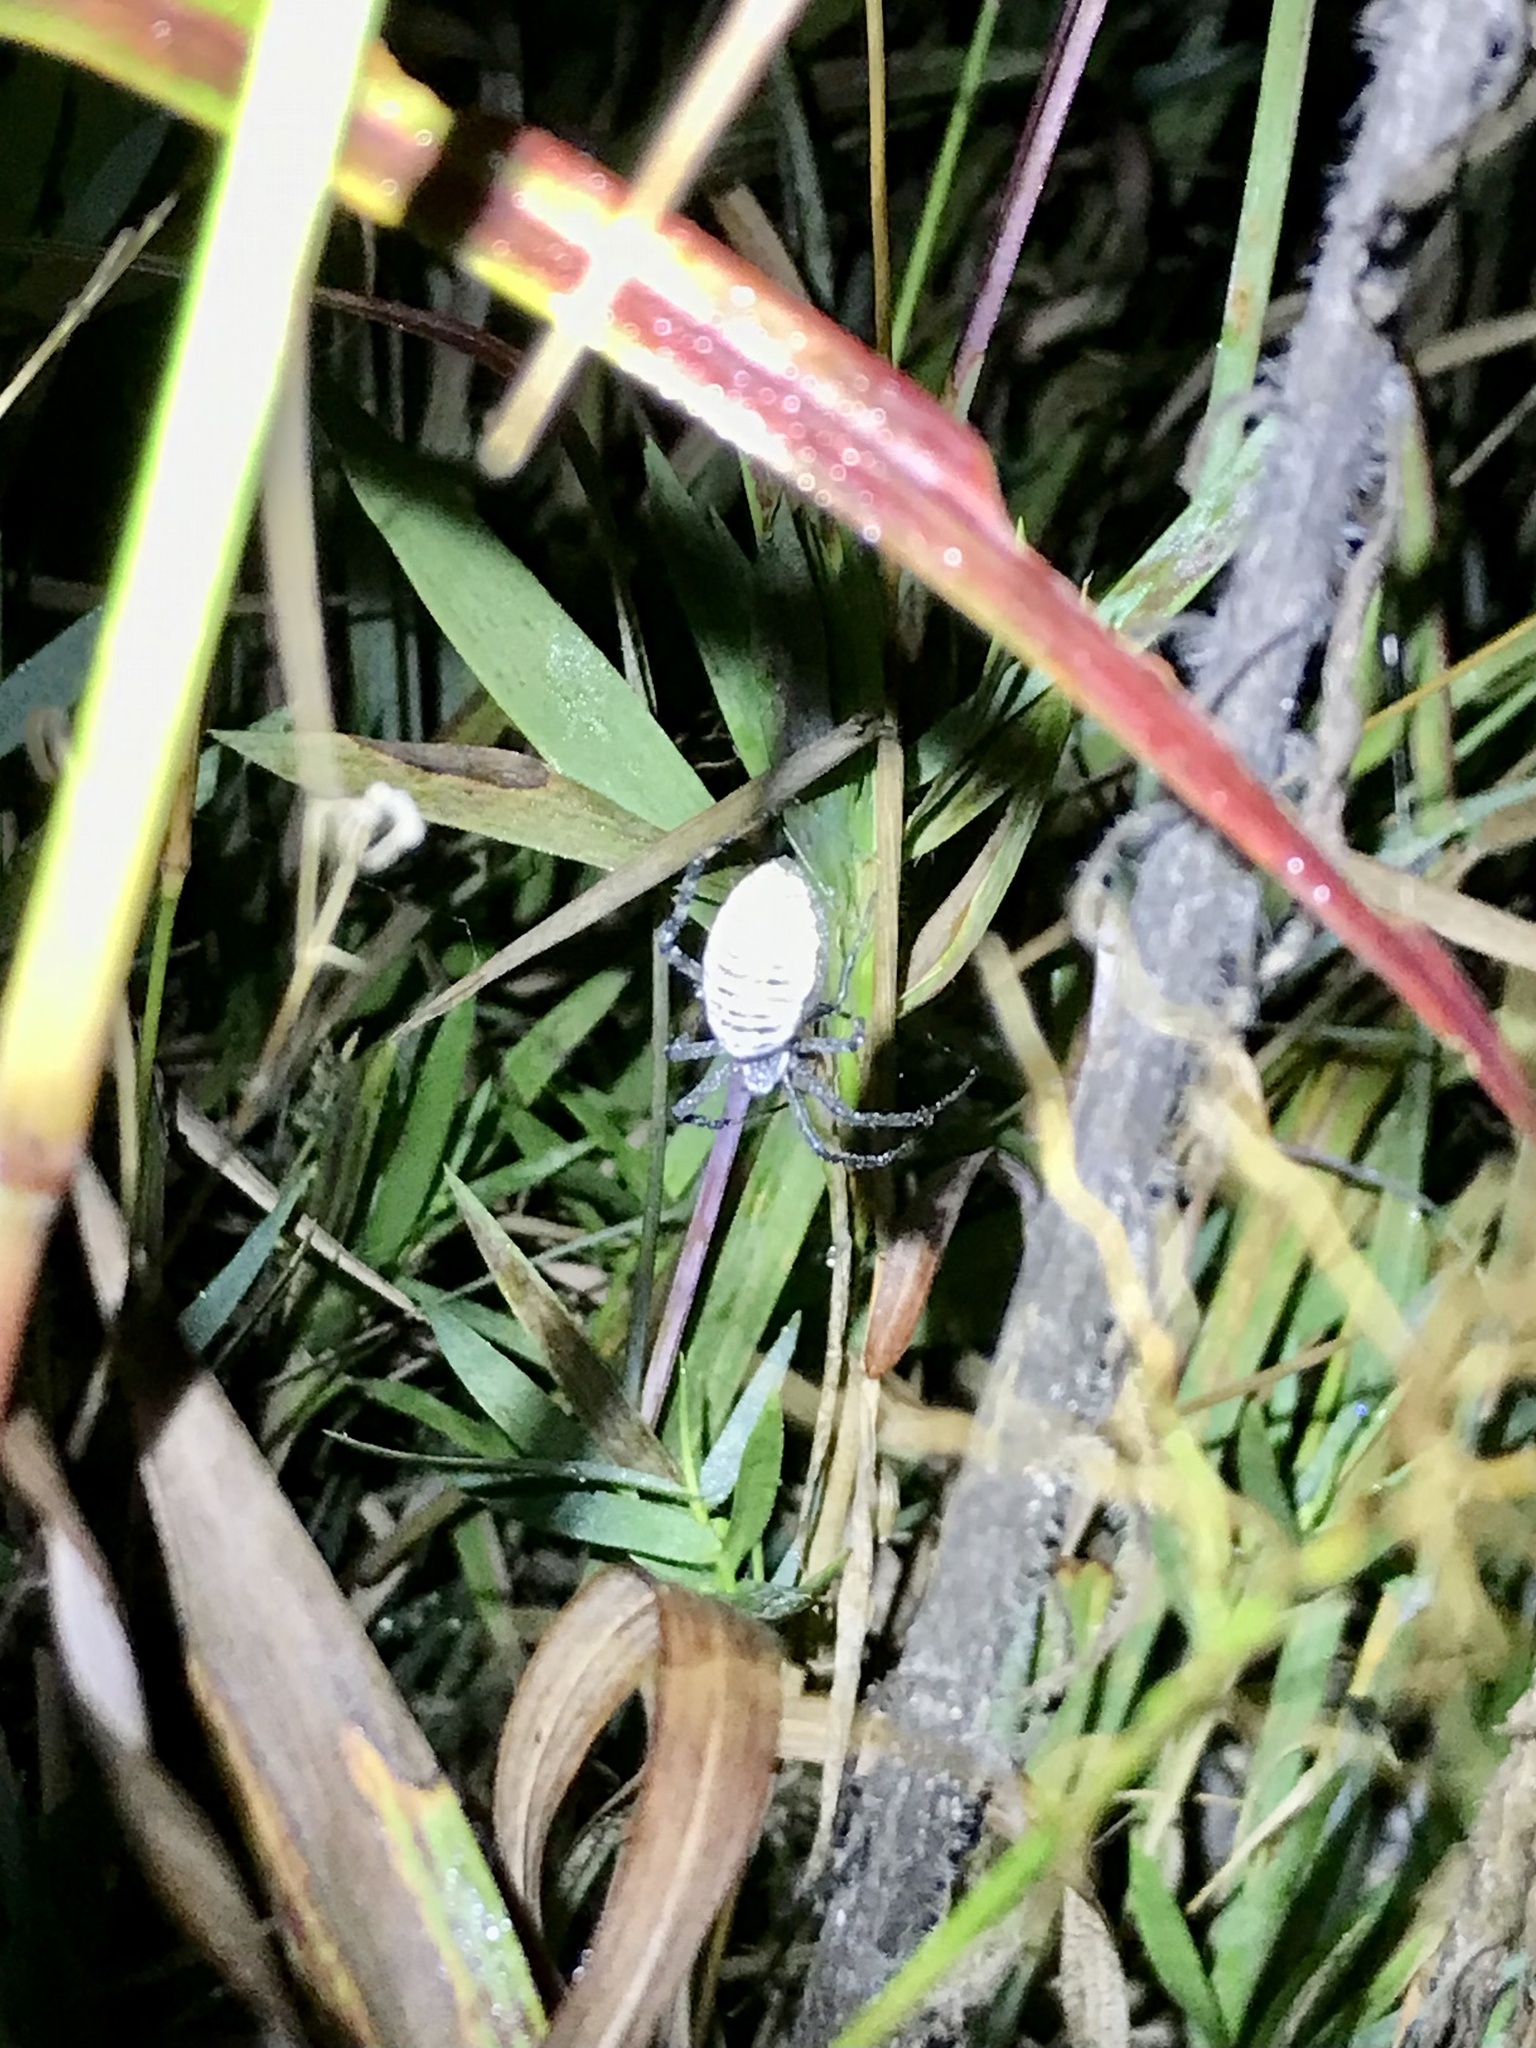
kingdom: Animalia
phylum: Arthropoda
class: Arachnida
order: Araneae
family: Araneidae
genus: Argiope
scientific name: Argiope trifasciata
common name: Banded garden spider
